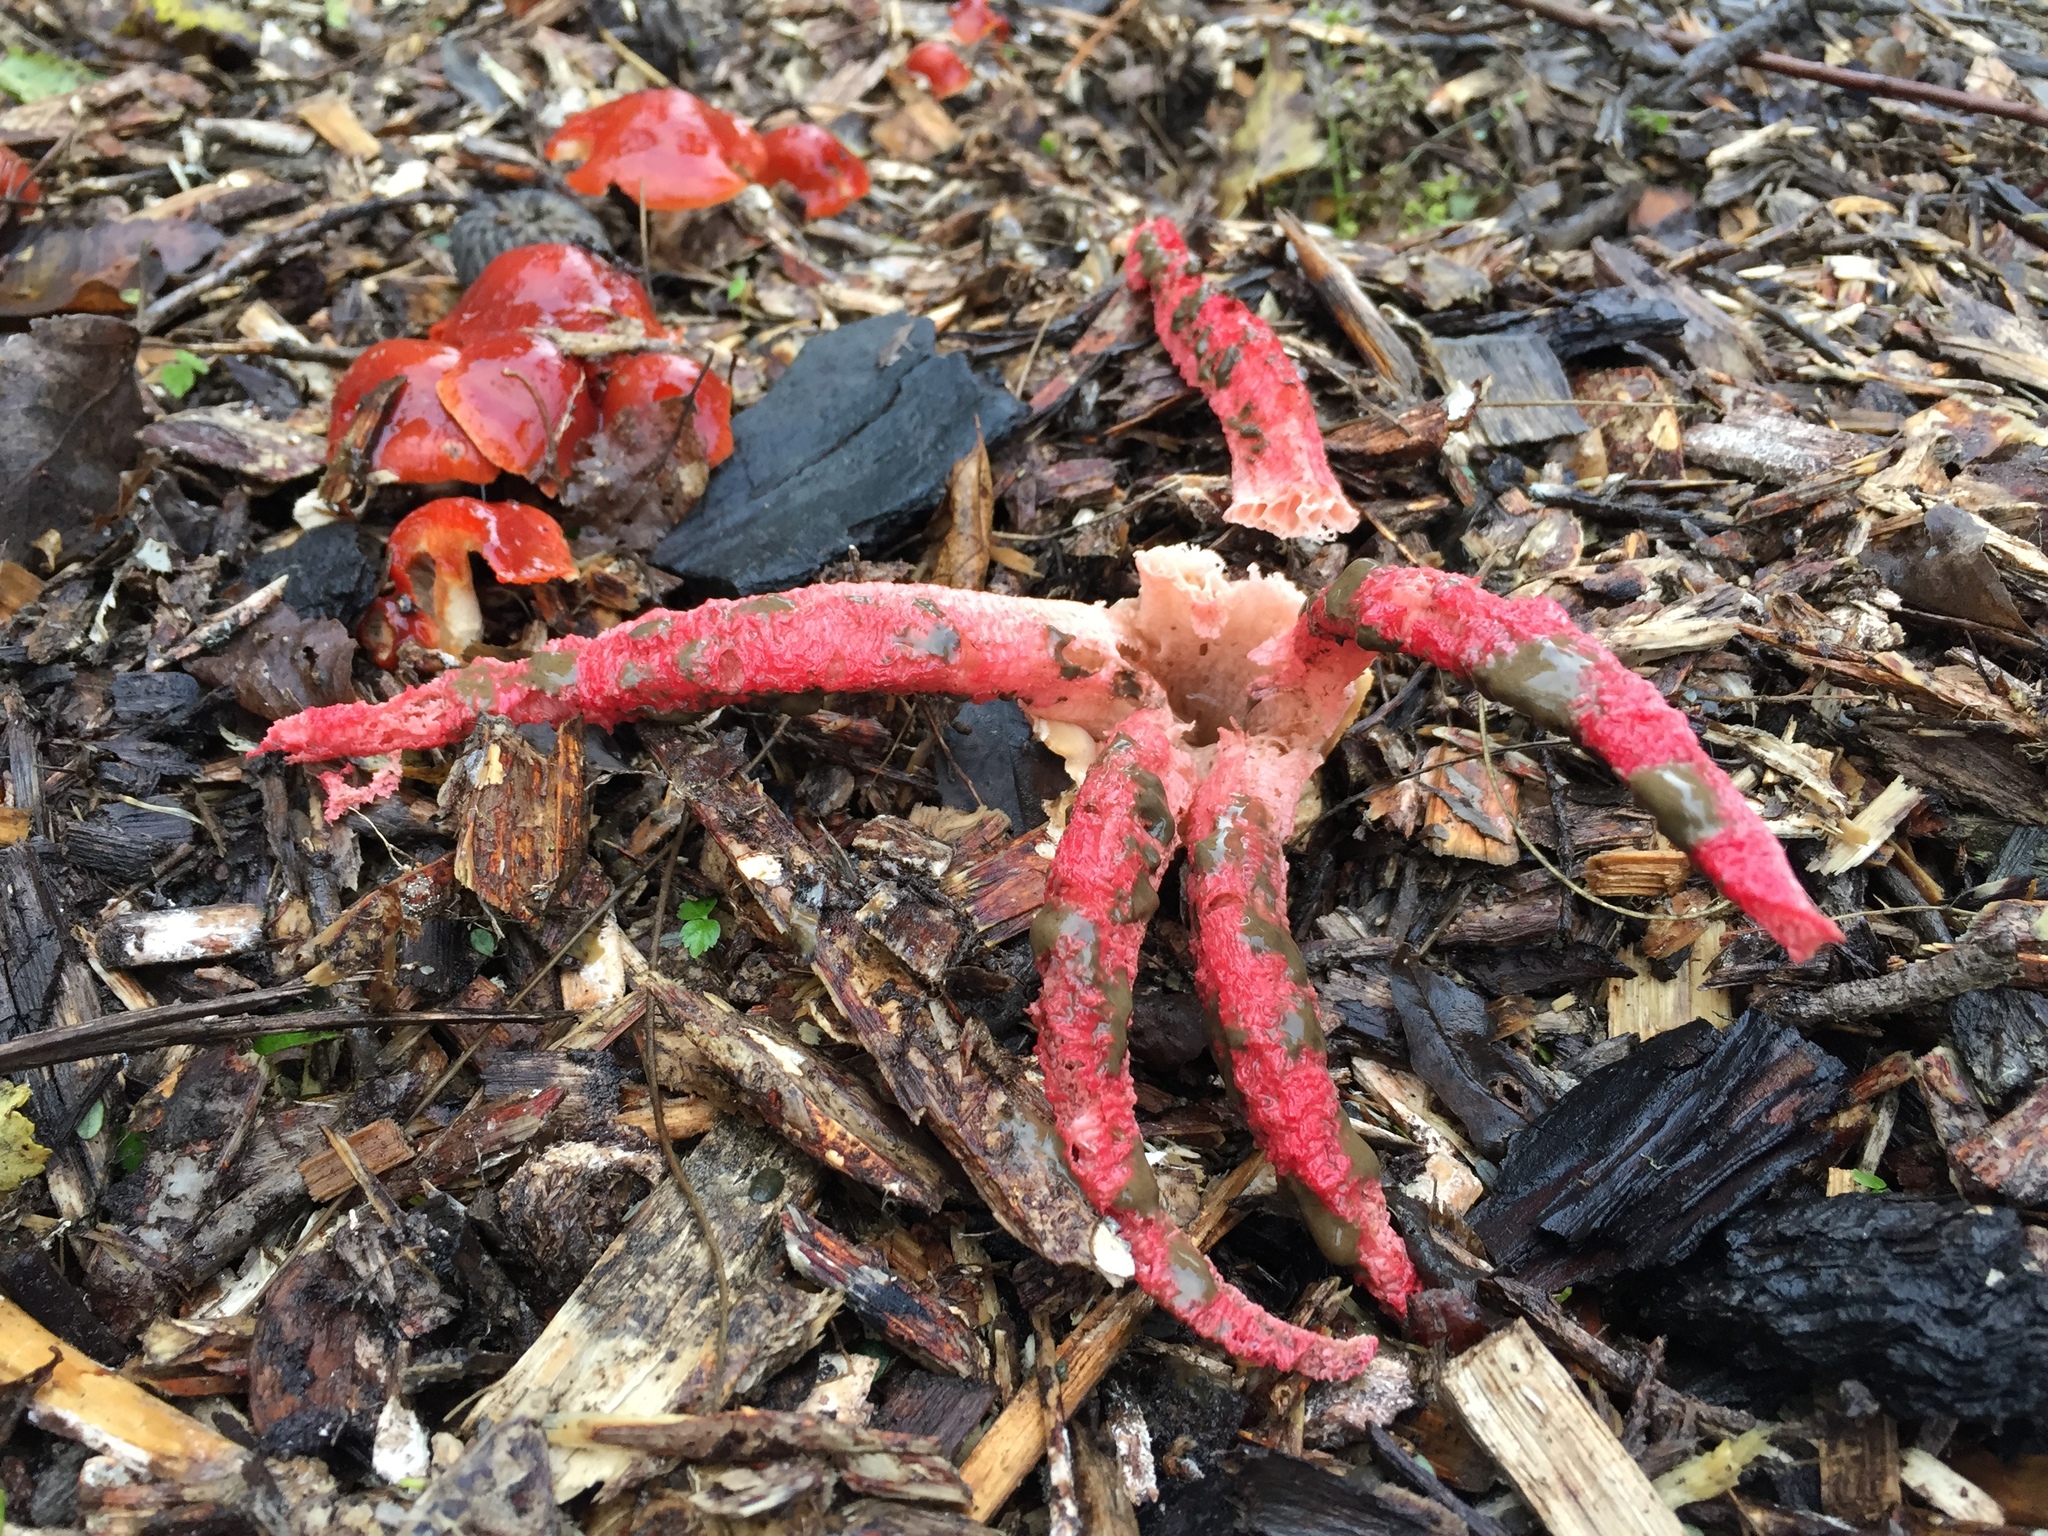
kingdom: Fungi
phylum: Basidiomycota
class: Agaricomycetes
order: Phallales
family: Phallaceae
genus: Clathrus
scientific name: Clathrus archeri
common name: Devil's fingers
